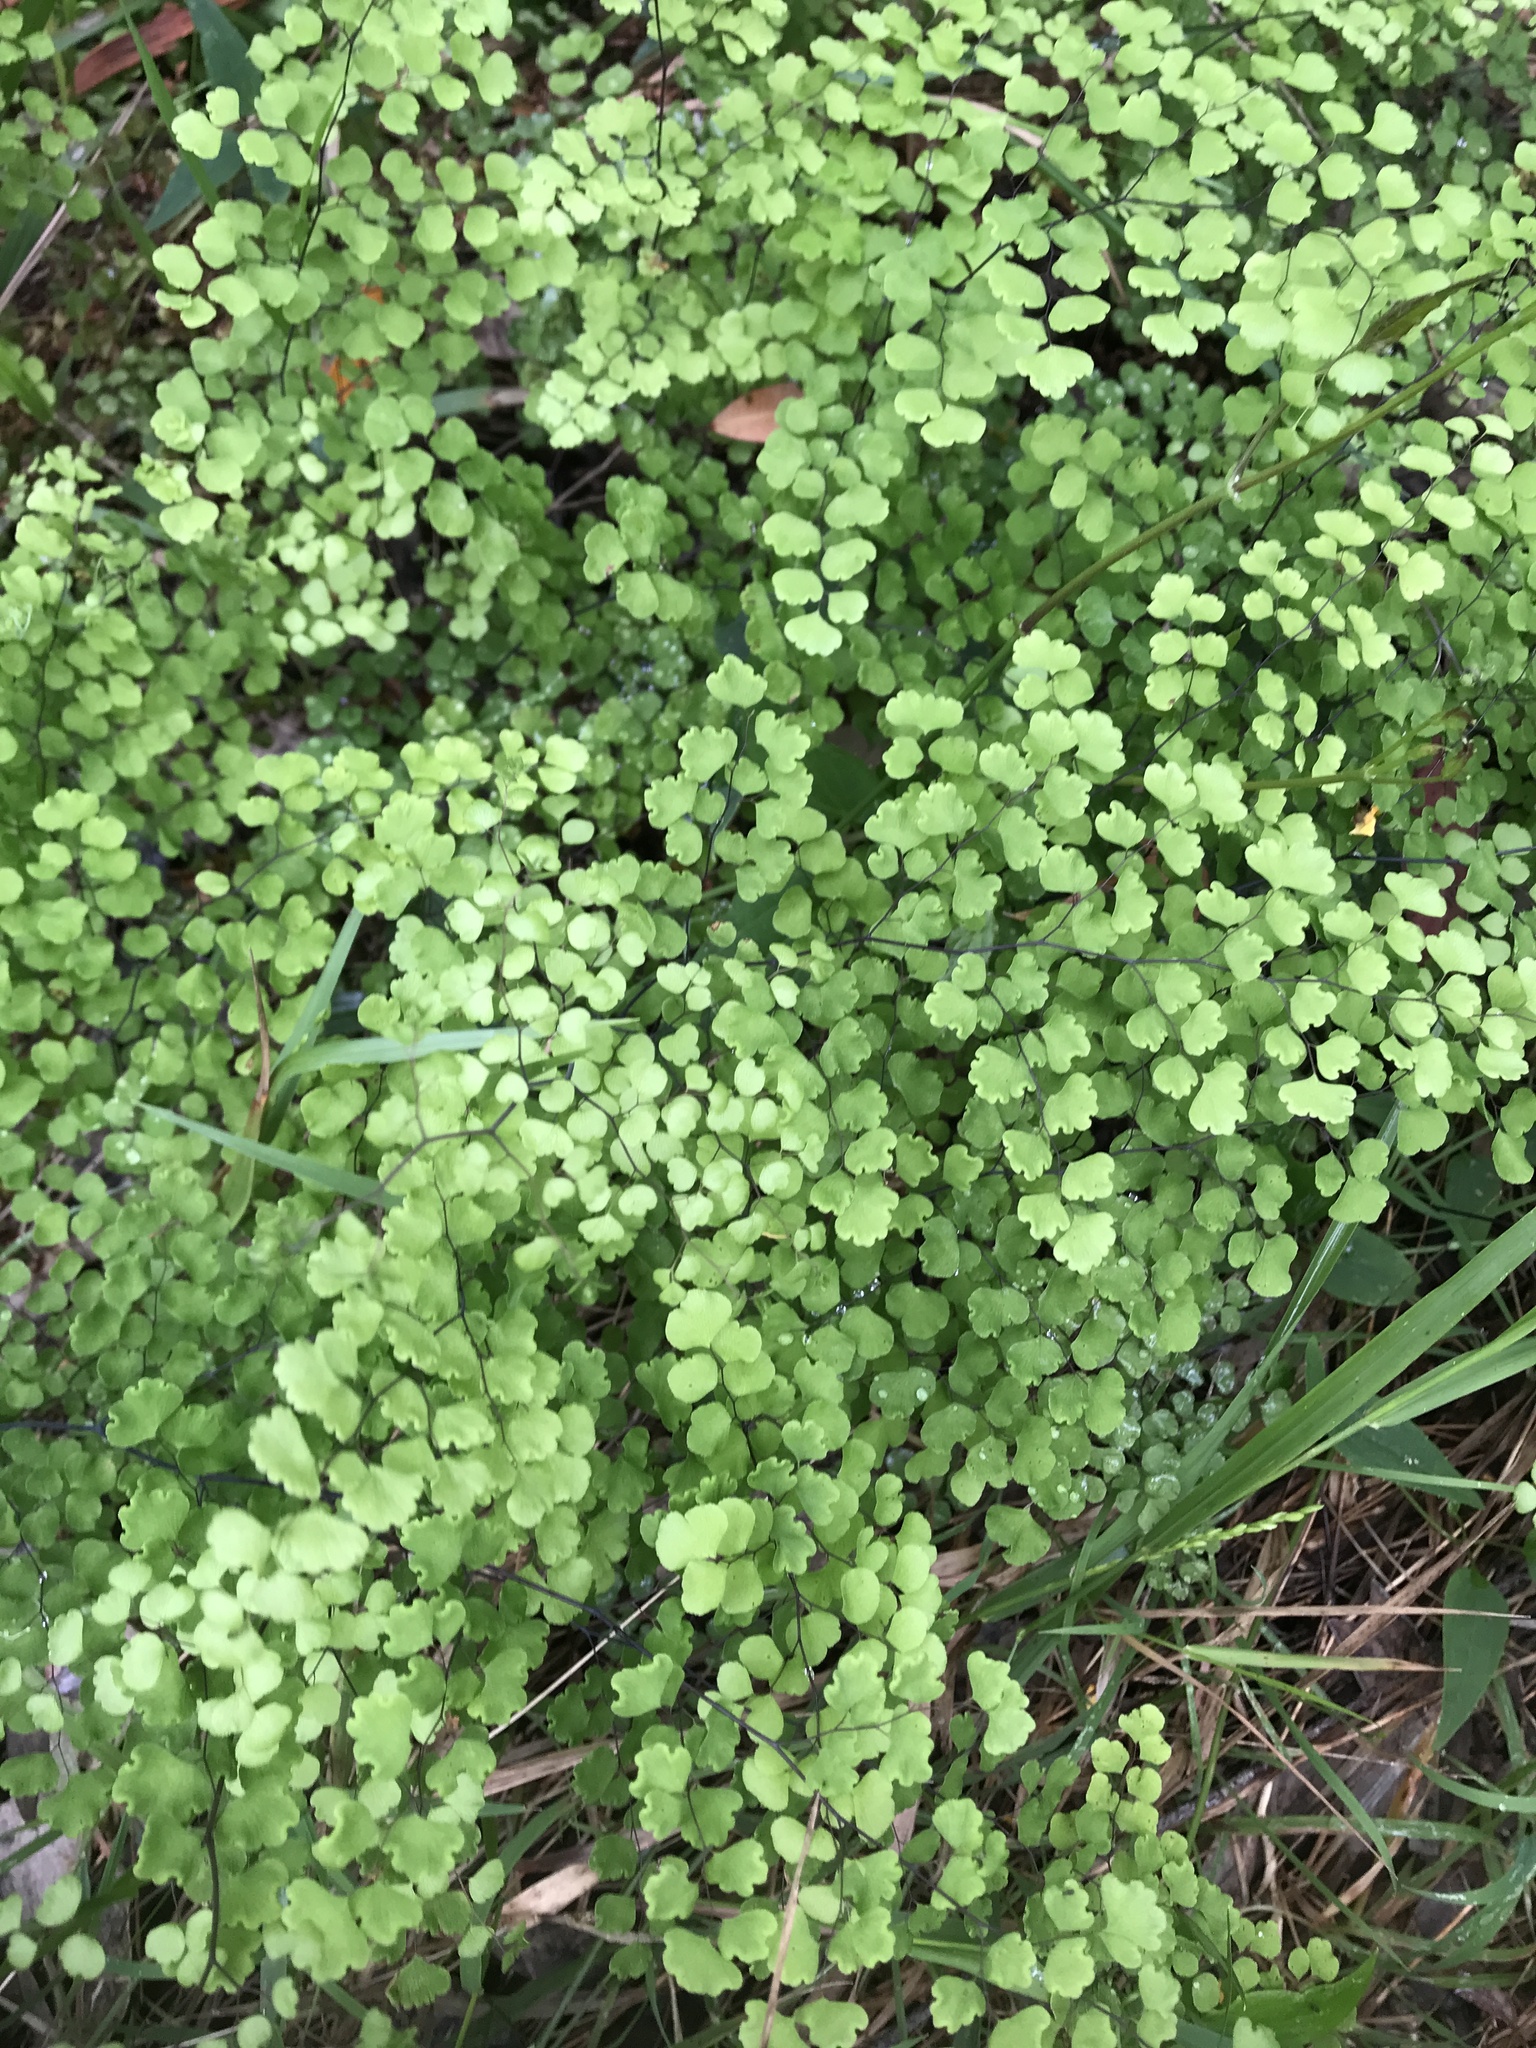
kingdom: Plantae
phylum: Tracheophyta
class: Polypodiopsida
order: Polypodiales
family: Pteridaceae
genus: Adiantum
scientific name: Adiantum aethiopicum
